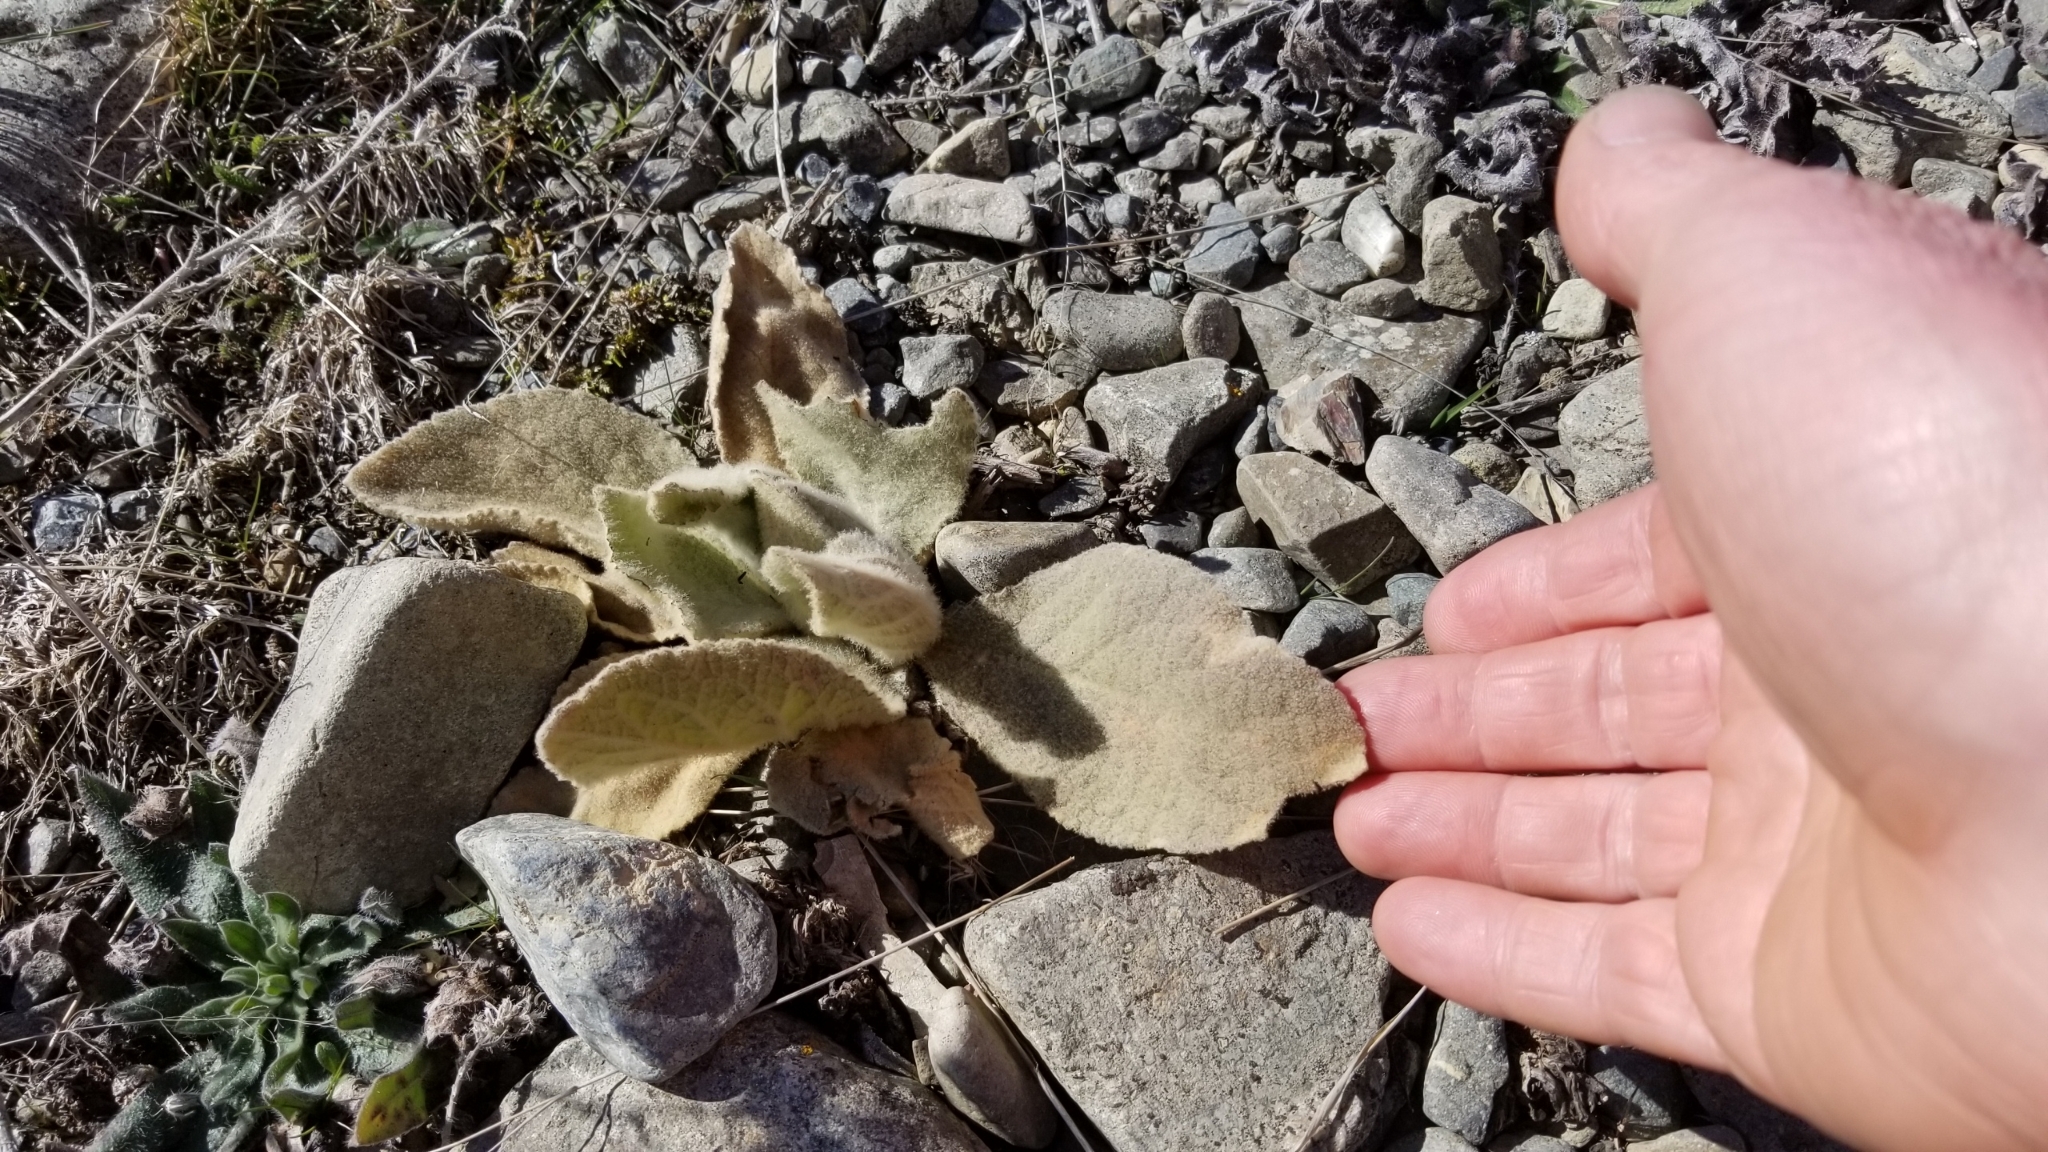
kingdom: Plantae
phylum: Tracheophyta
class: Magnoliopsida
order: Lamiales
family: Scrophulariaceae
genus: Verbascum
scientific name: Verbascum thapsus
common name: Common mullein
